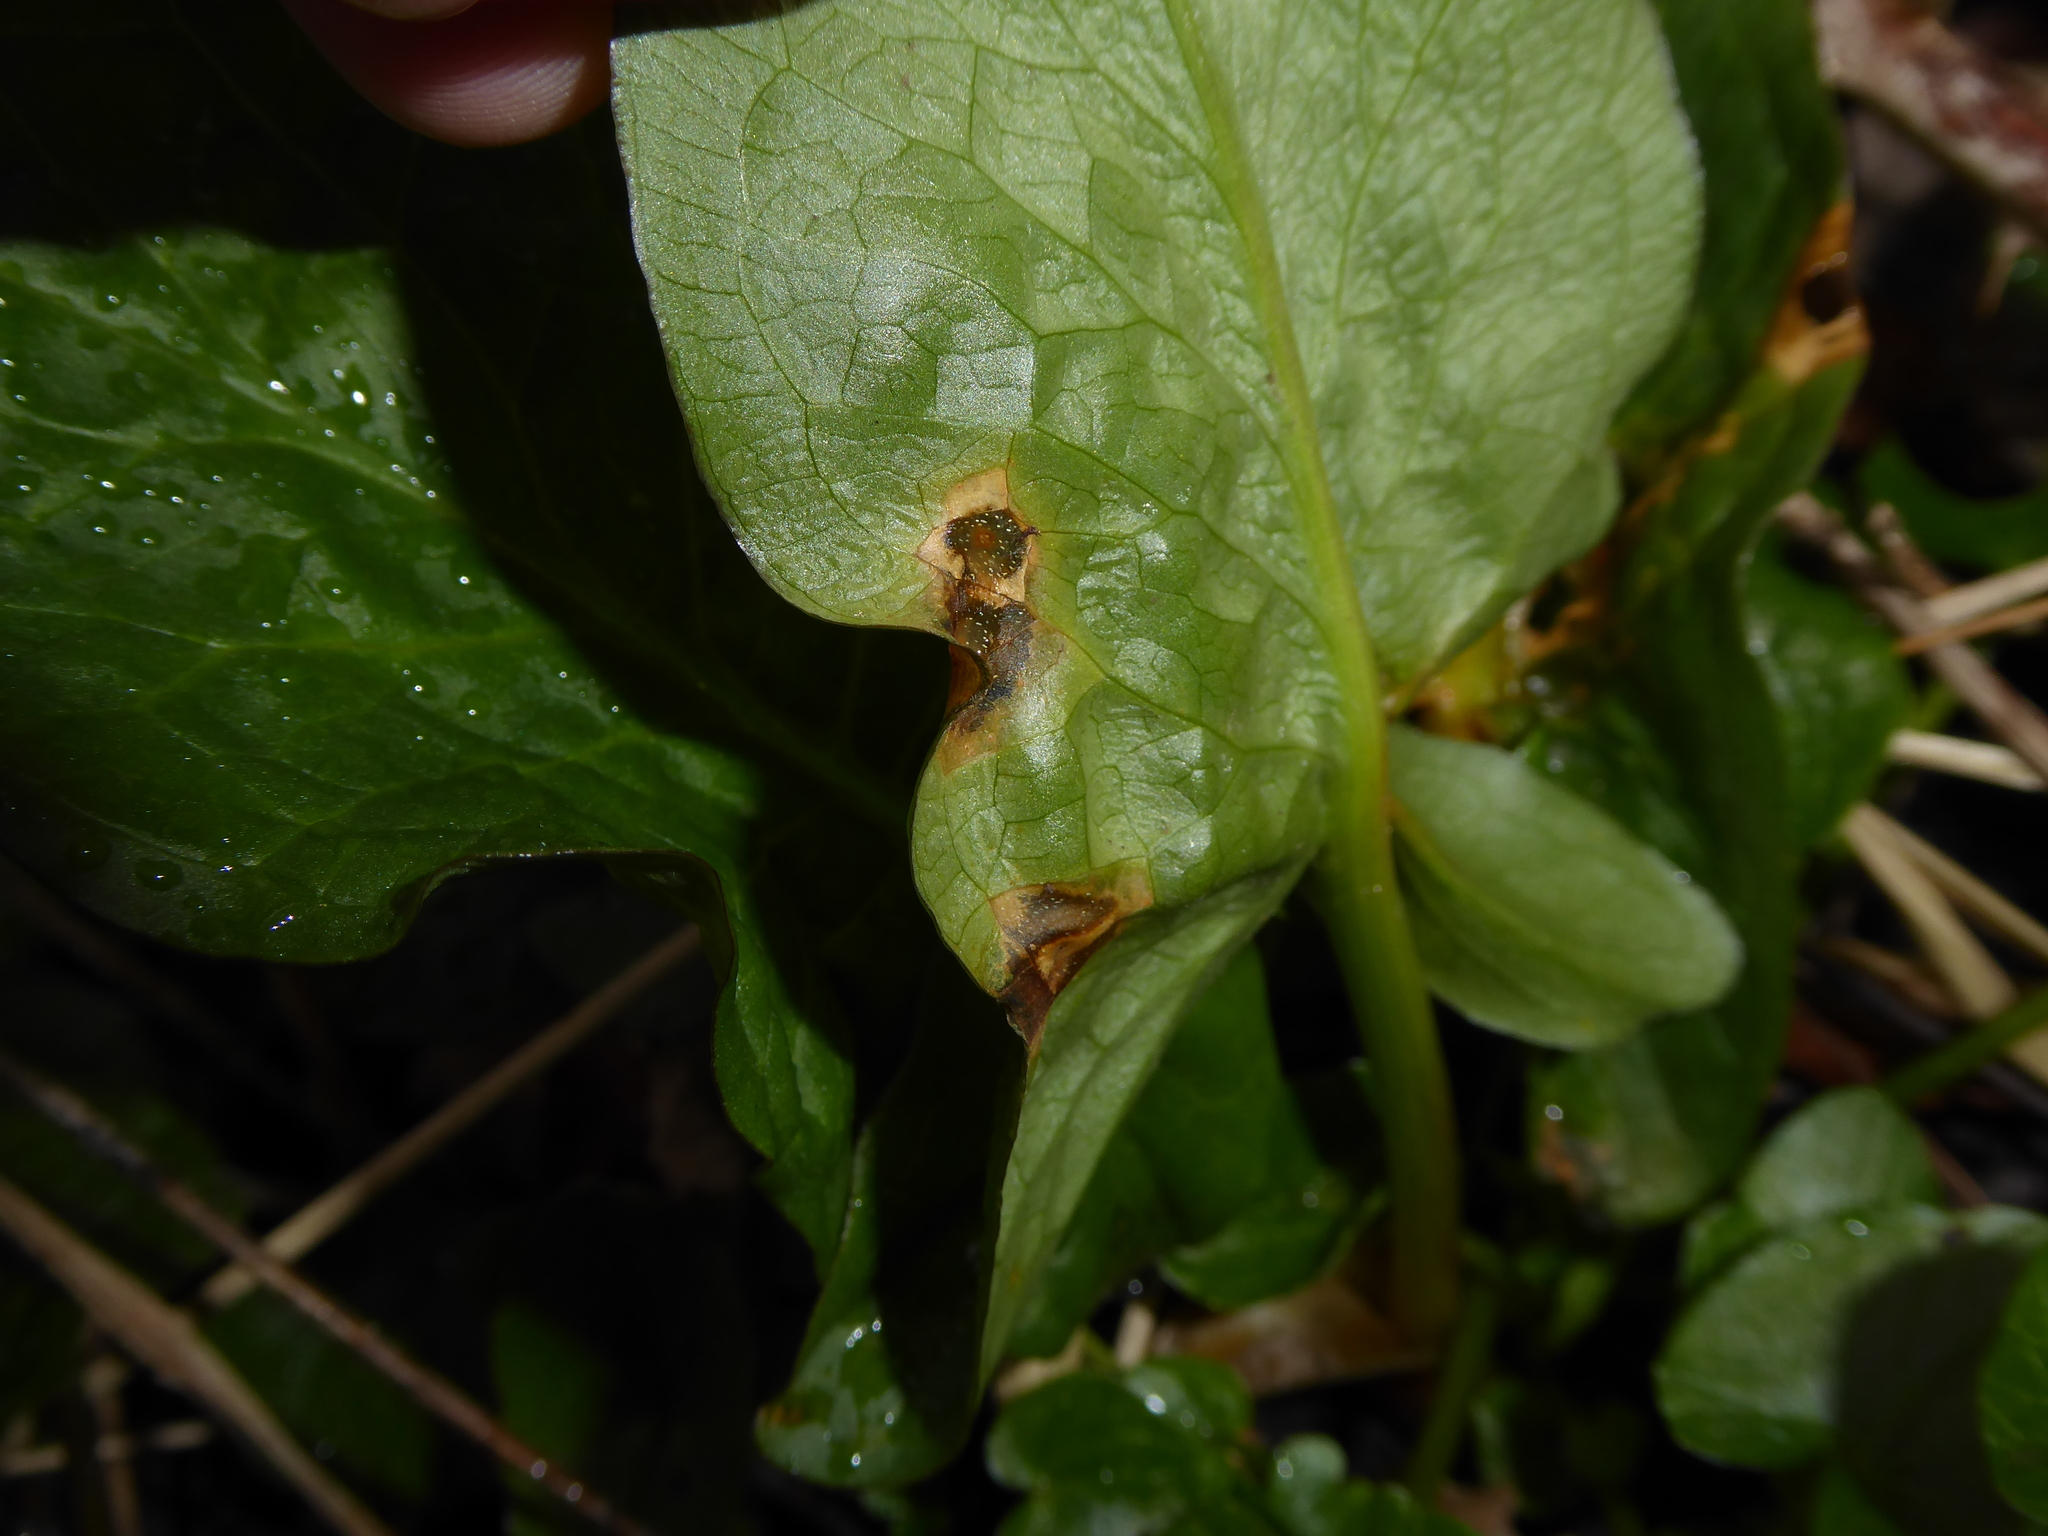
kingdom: Fungi
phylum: Ascomycota
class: Sordariomycetes
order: Glomerellales
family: Plectosphaerellaceae
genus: Spermosporina
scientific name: Spermosporina aricola
